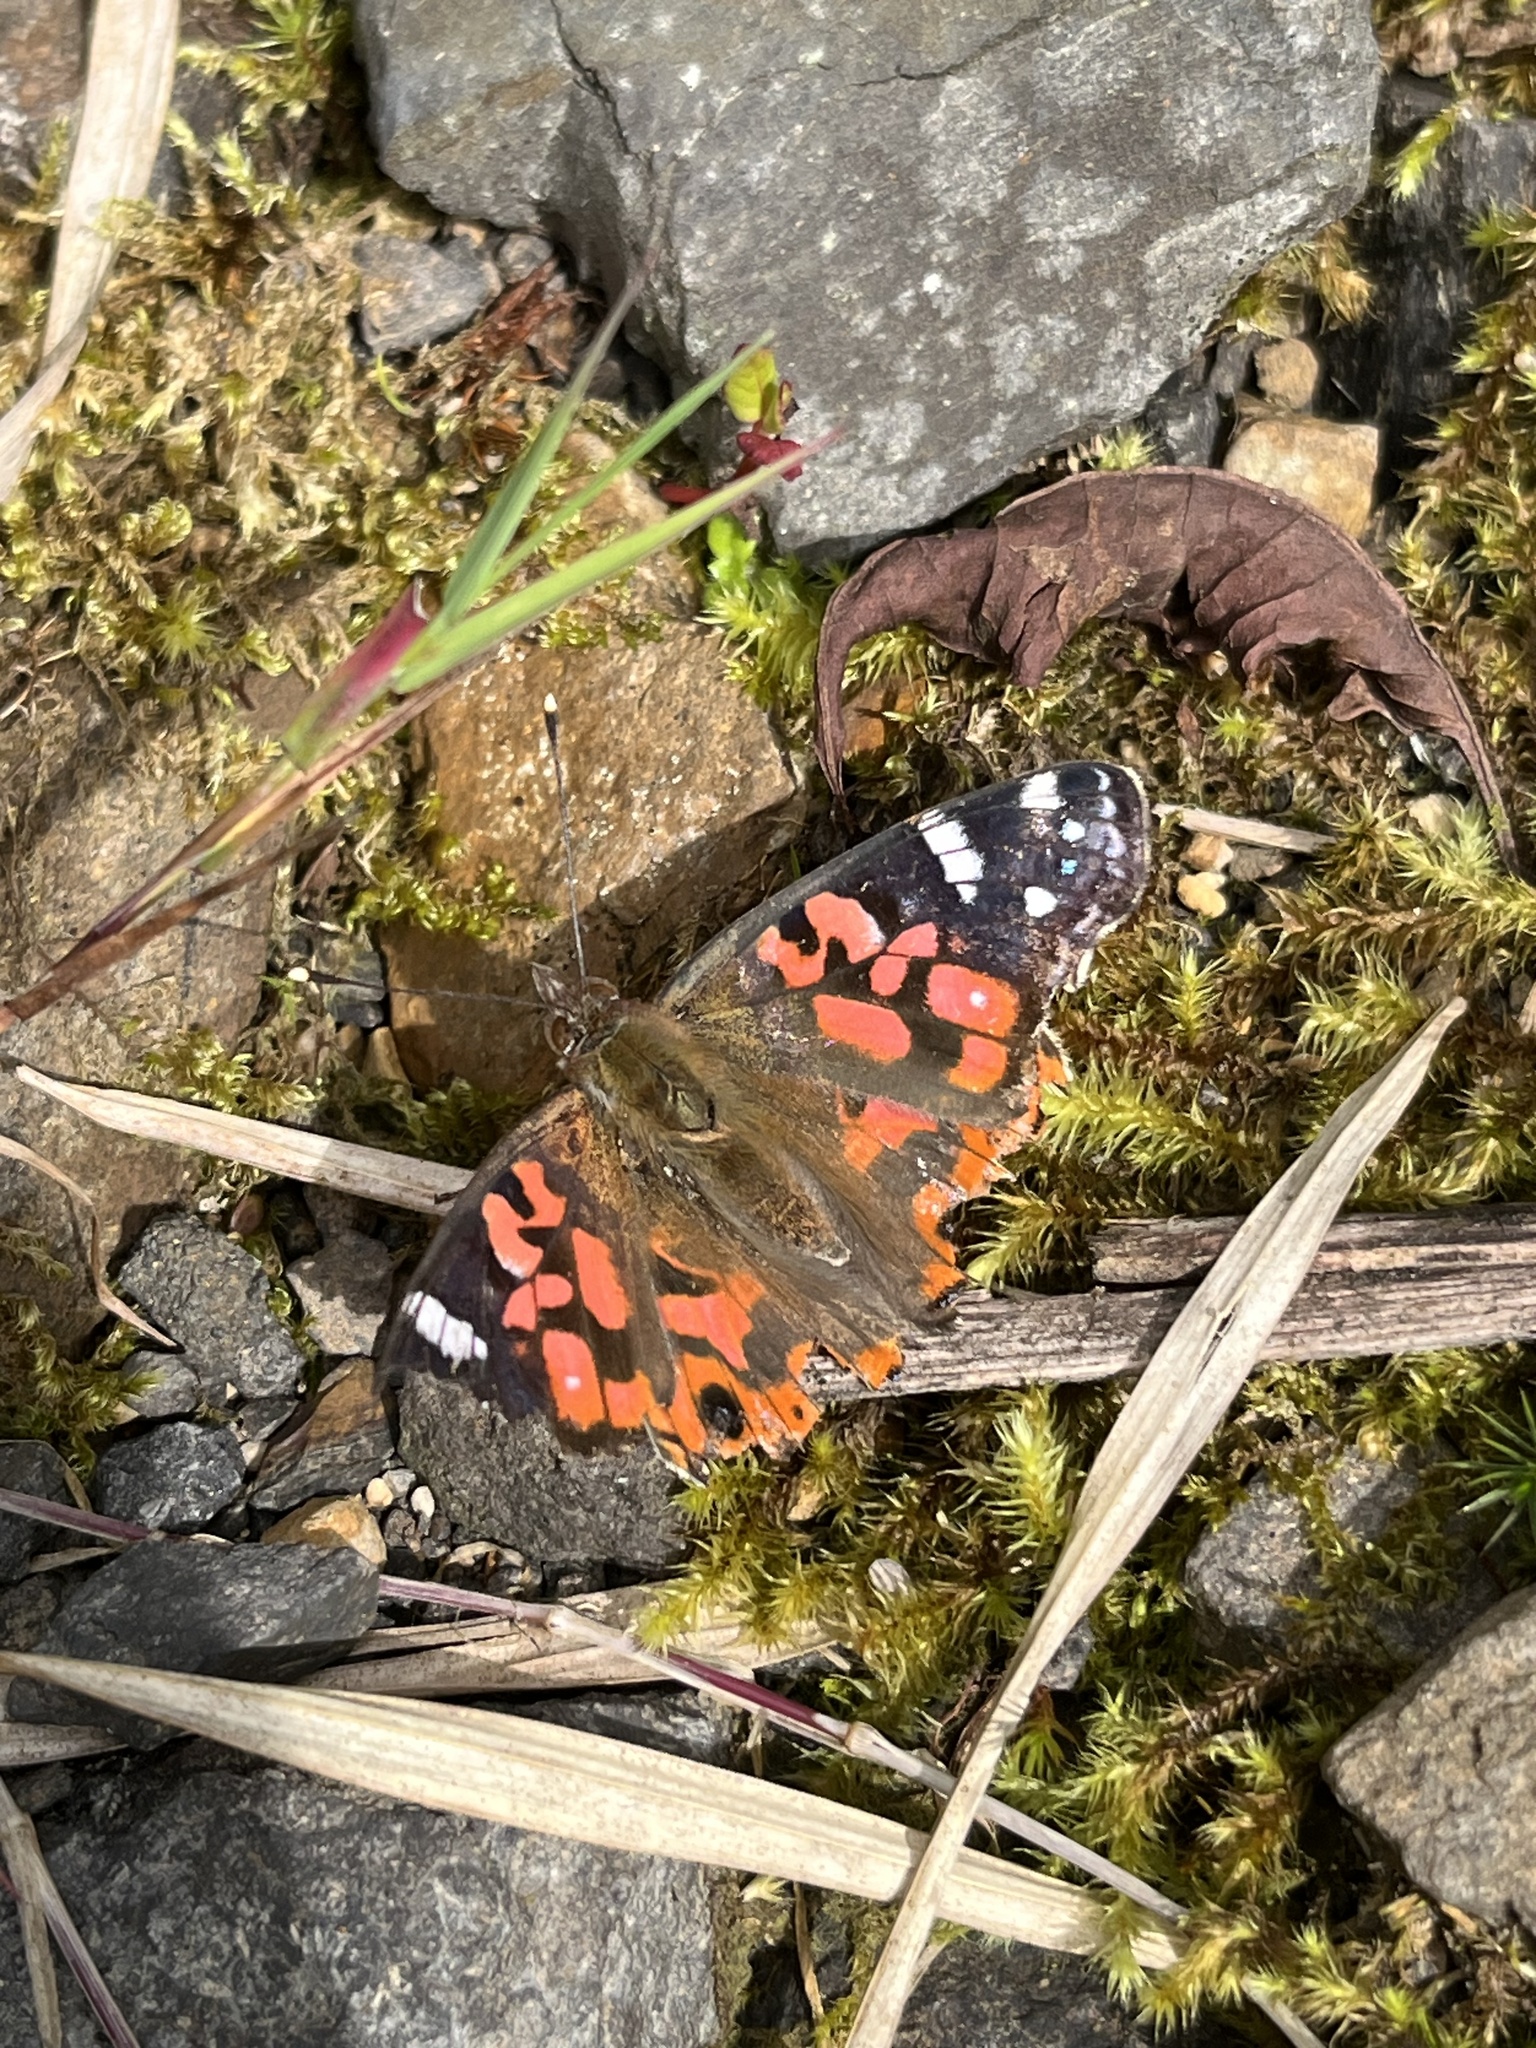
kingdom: Animalia
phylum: Arthropoda
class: Insecta
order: Lepidoptera
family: Nymphalidae
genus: Vanessa
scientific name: Vanessa braziliensis
